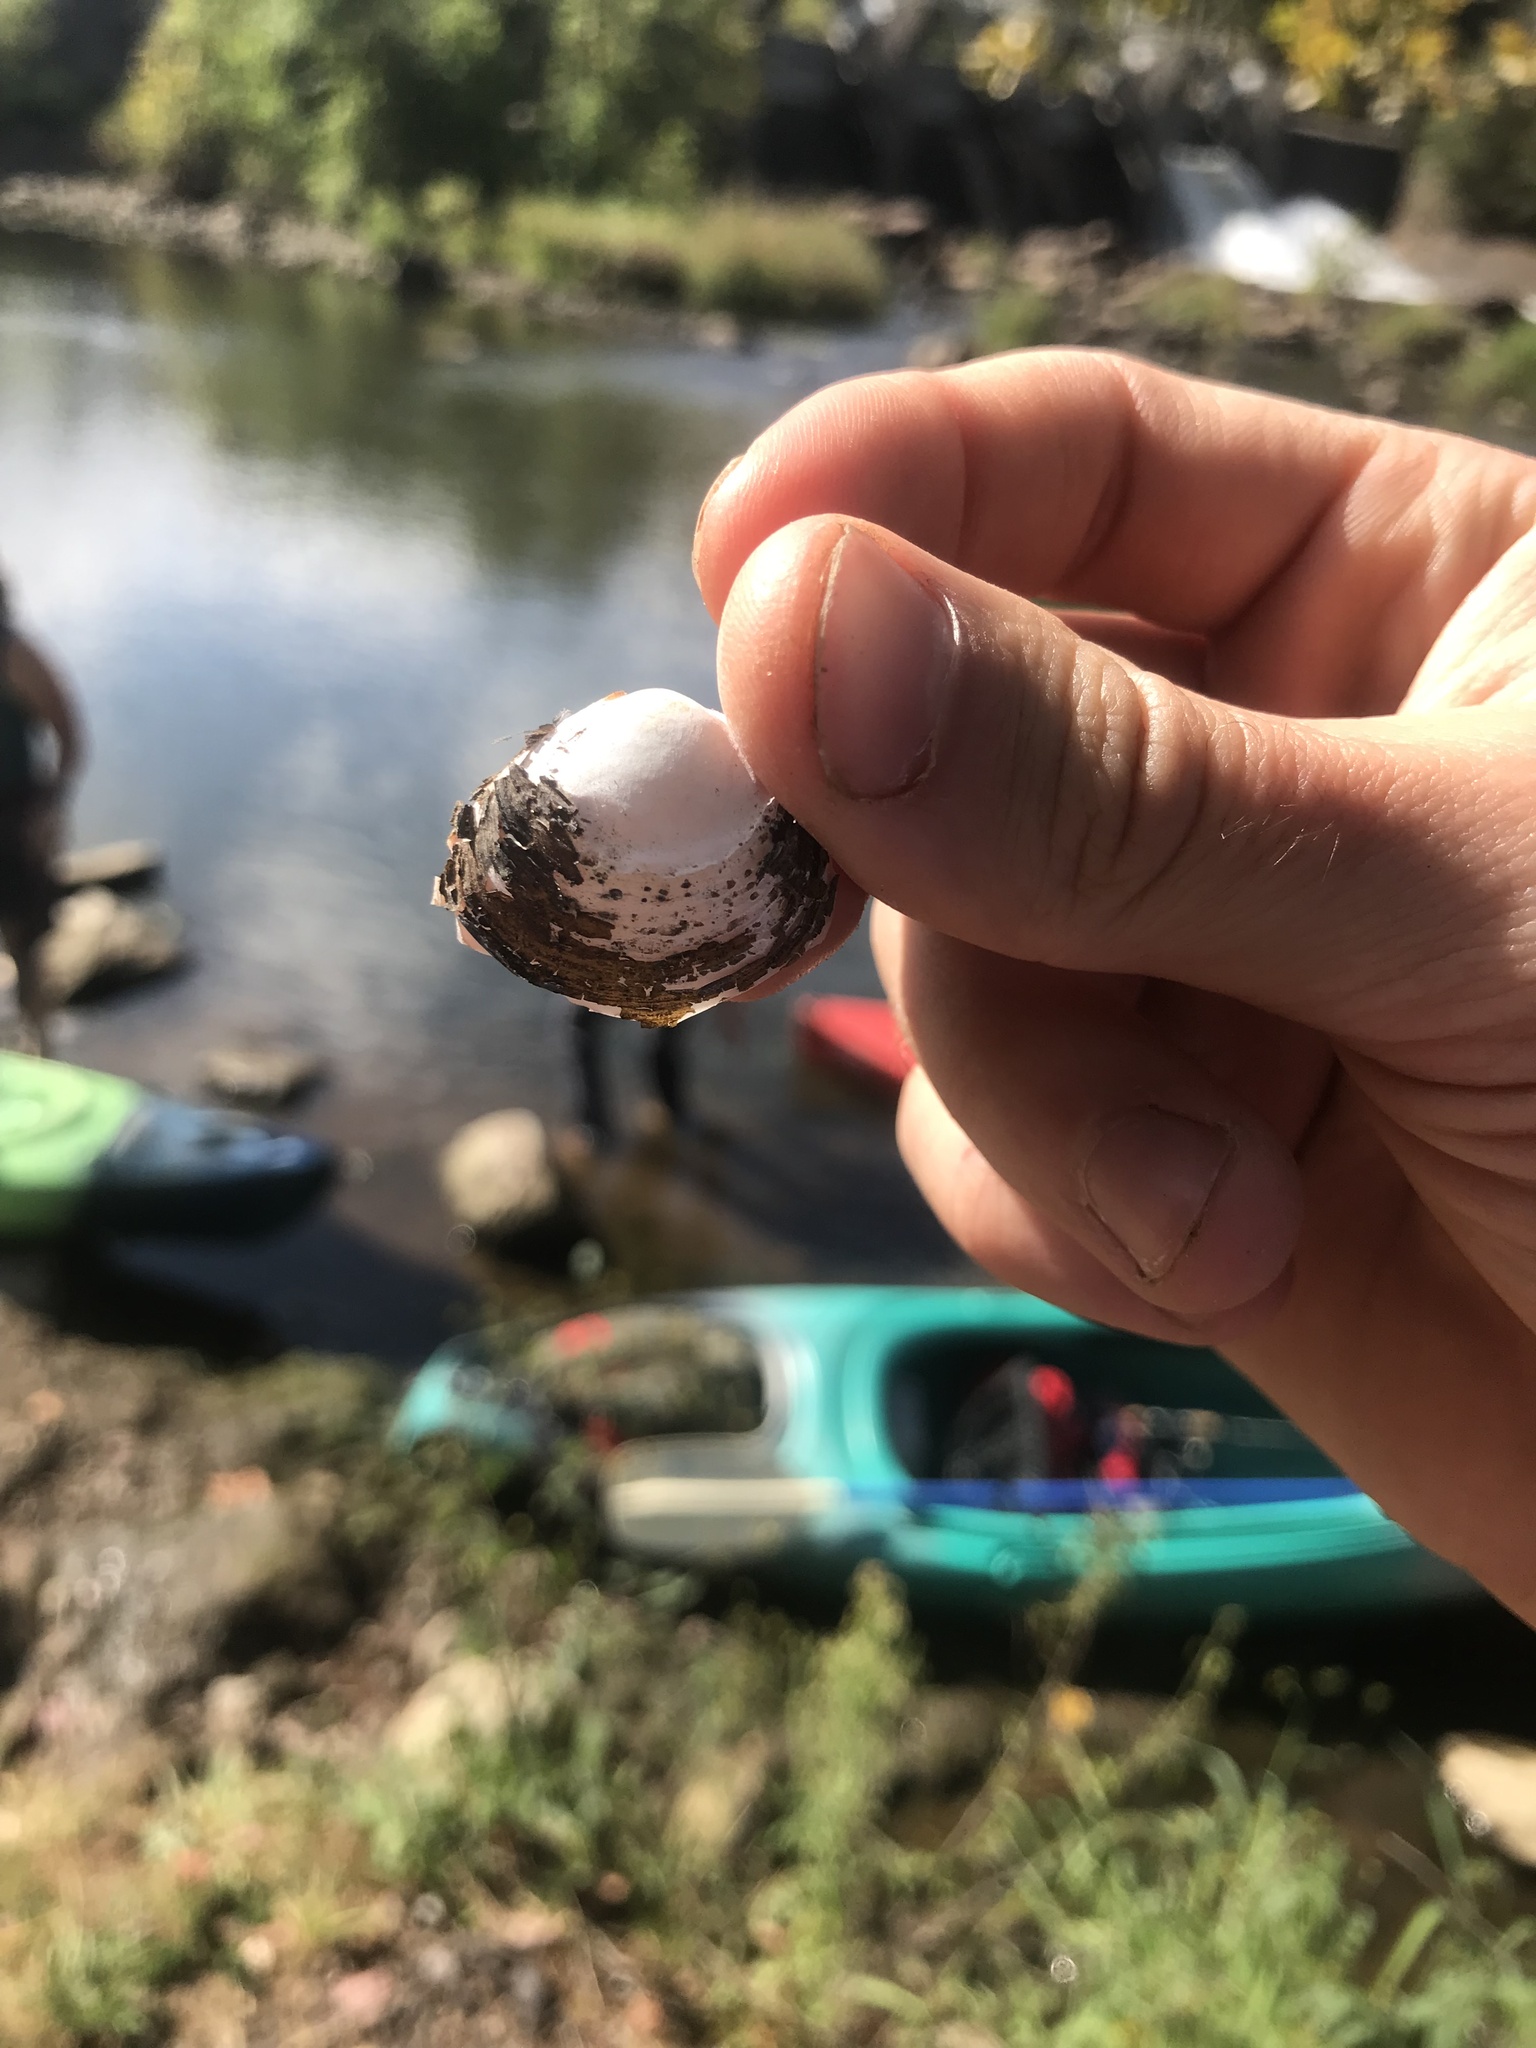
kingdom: Animalia
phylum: Mollusca
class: Bivalvia
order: Venerida
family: Cyrenidae
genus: Corbicula
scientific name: Corbicula fluminea
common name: Asian clam
